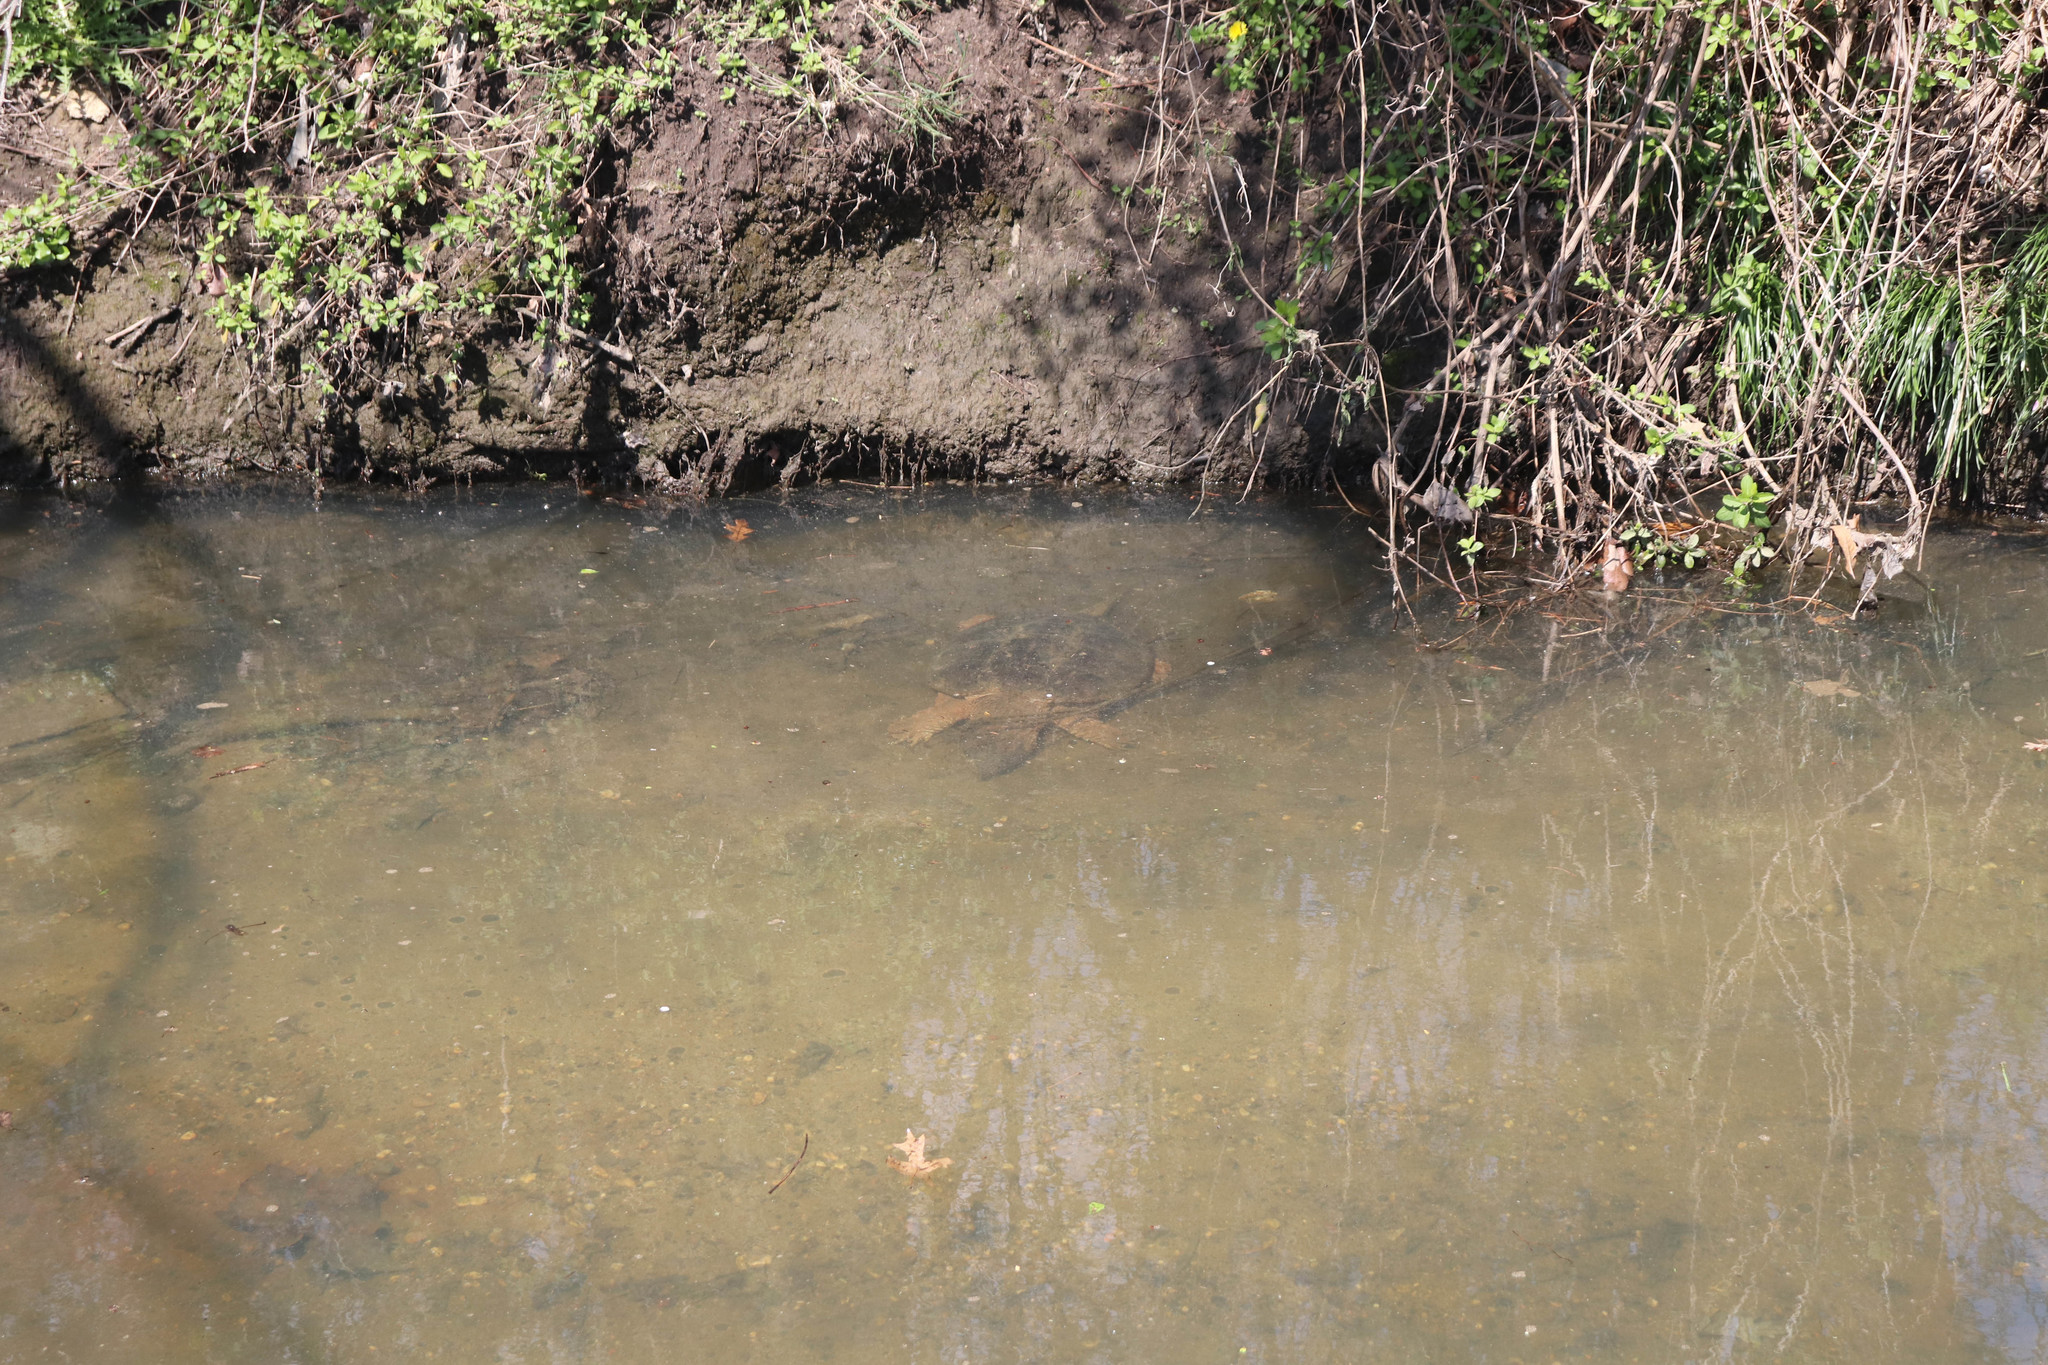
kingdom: Animalia
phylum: Chordata
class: Testudines
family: Chelydridae
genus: Chelydra
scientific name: Chelydra serpentina
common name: Common snapping turtle
